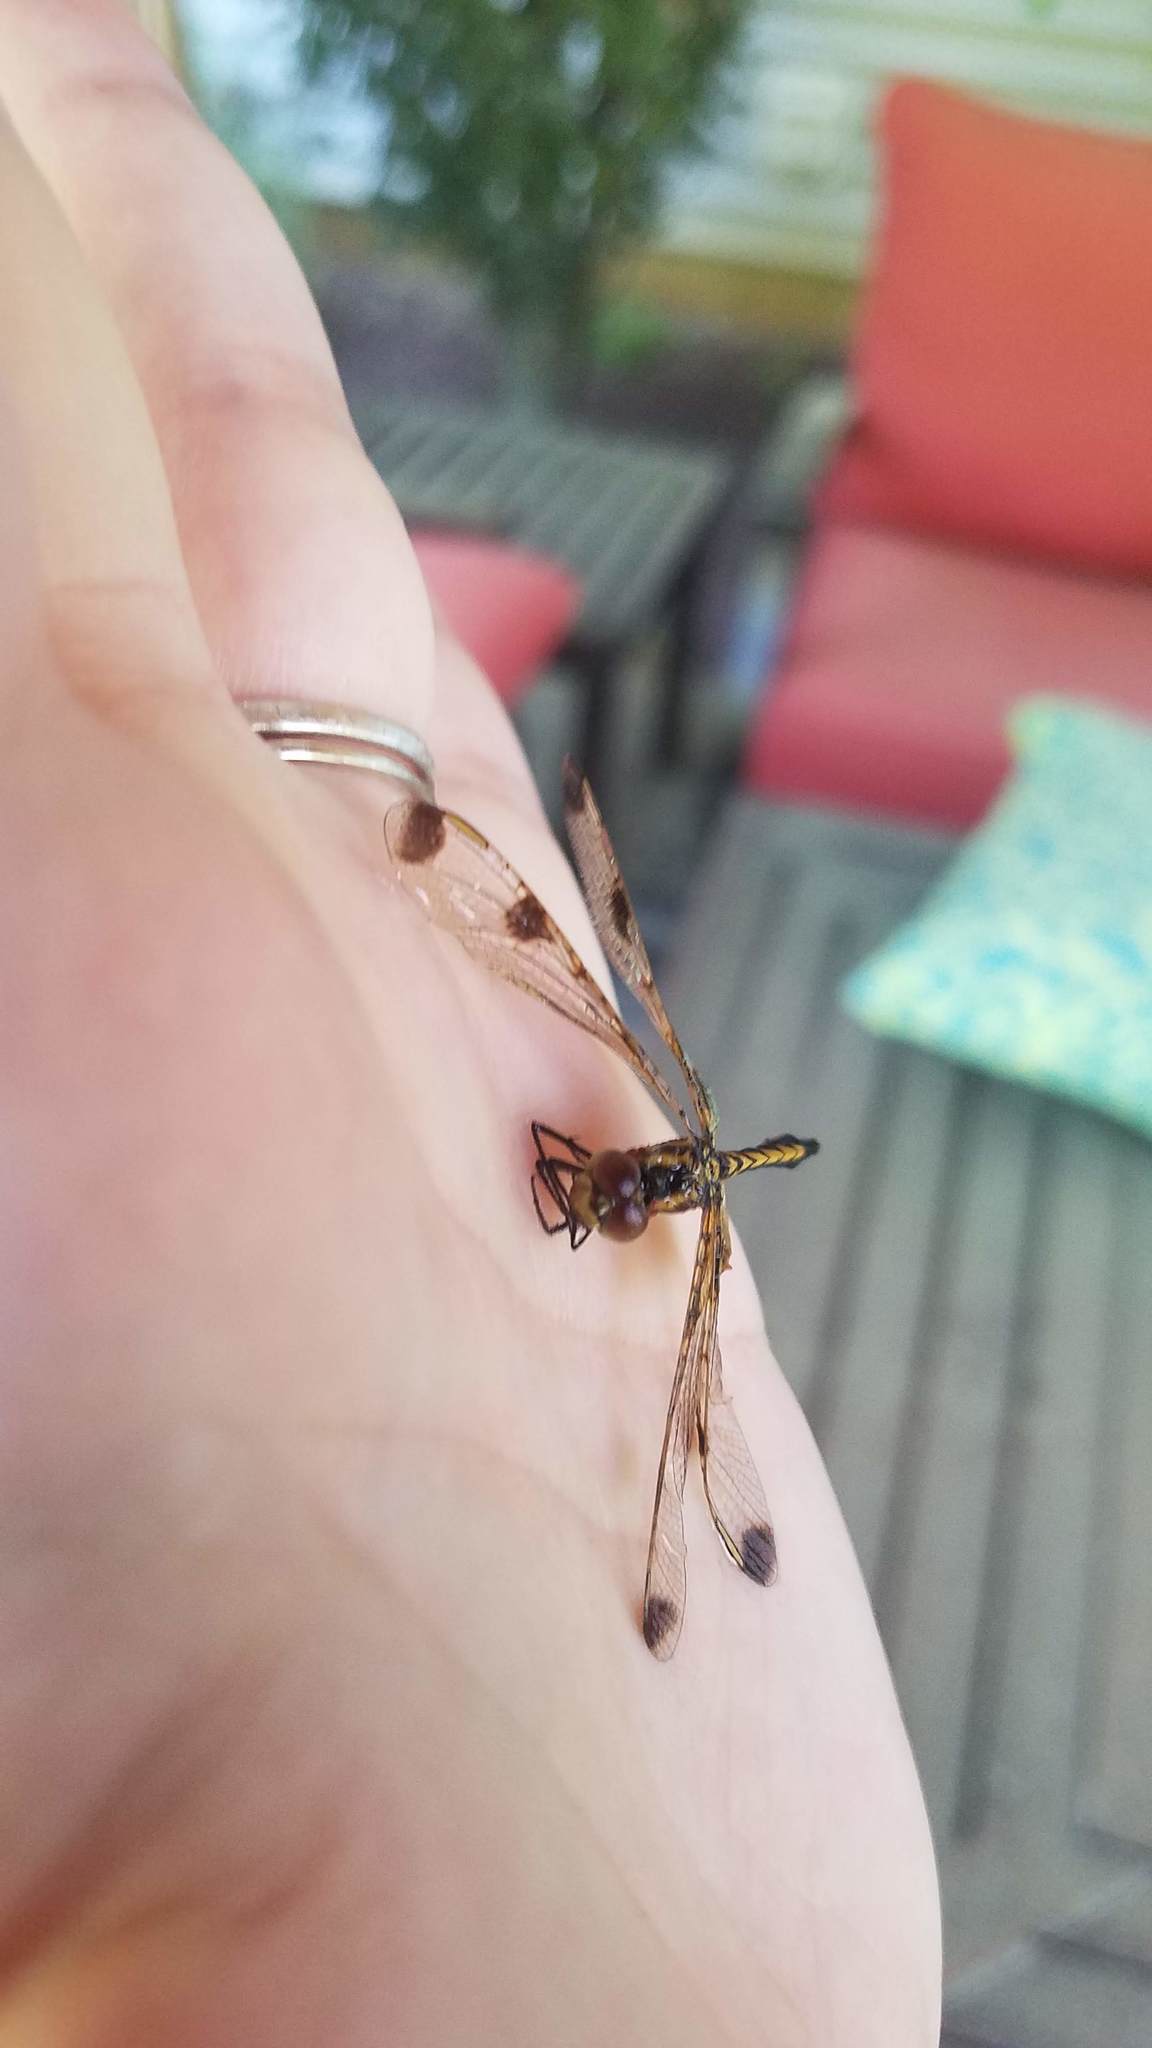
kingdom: Animalia
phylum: Arthropoda
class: Insecta
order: Odonata
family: Libellulidae
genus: Celithemis
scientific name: Celithemis elisa
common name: Calico pennant
